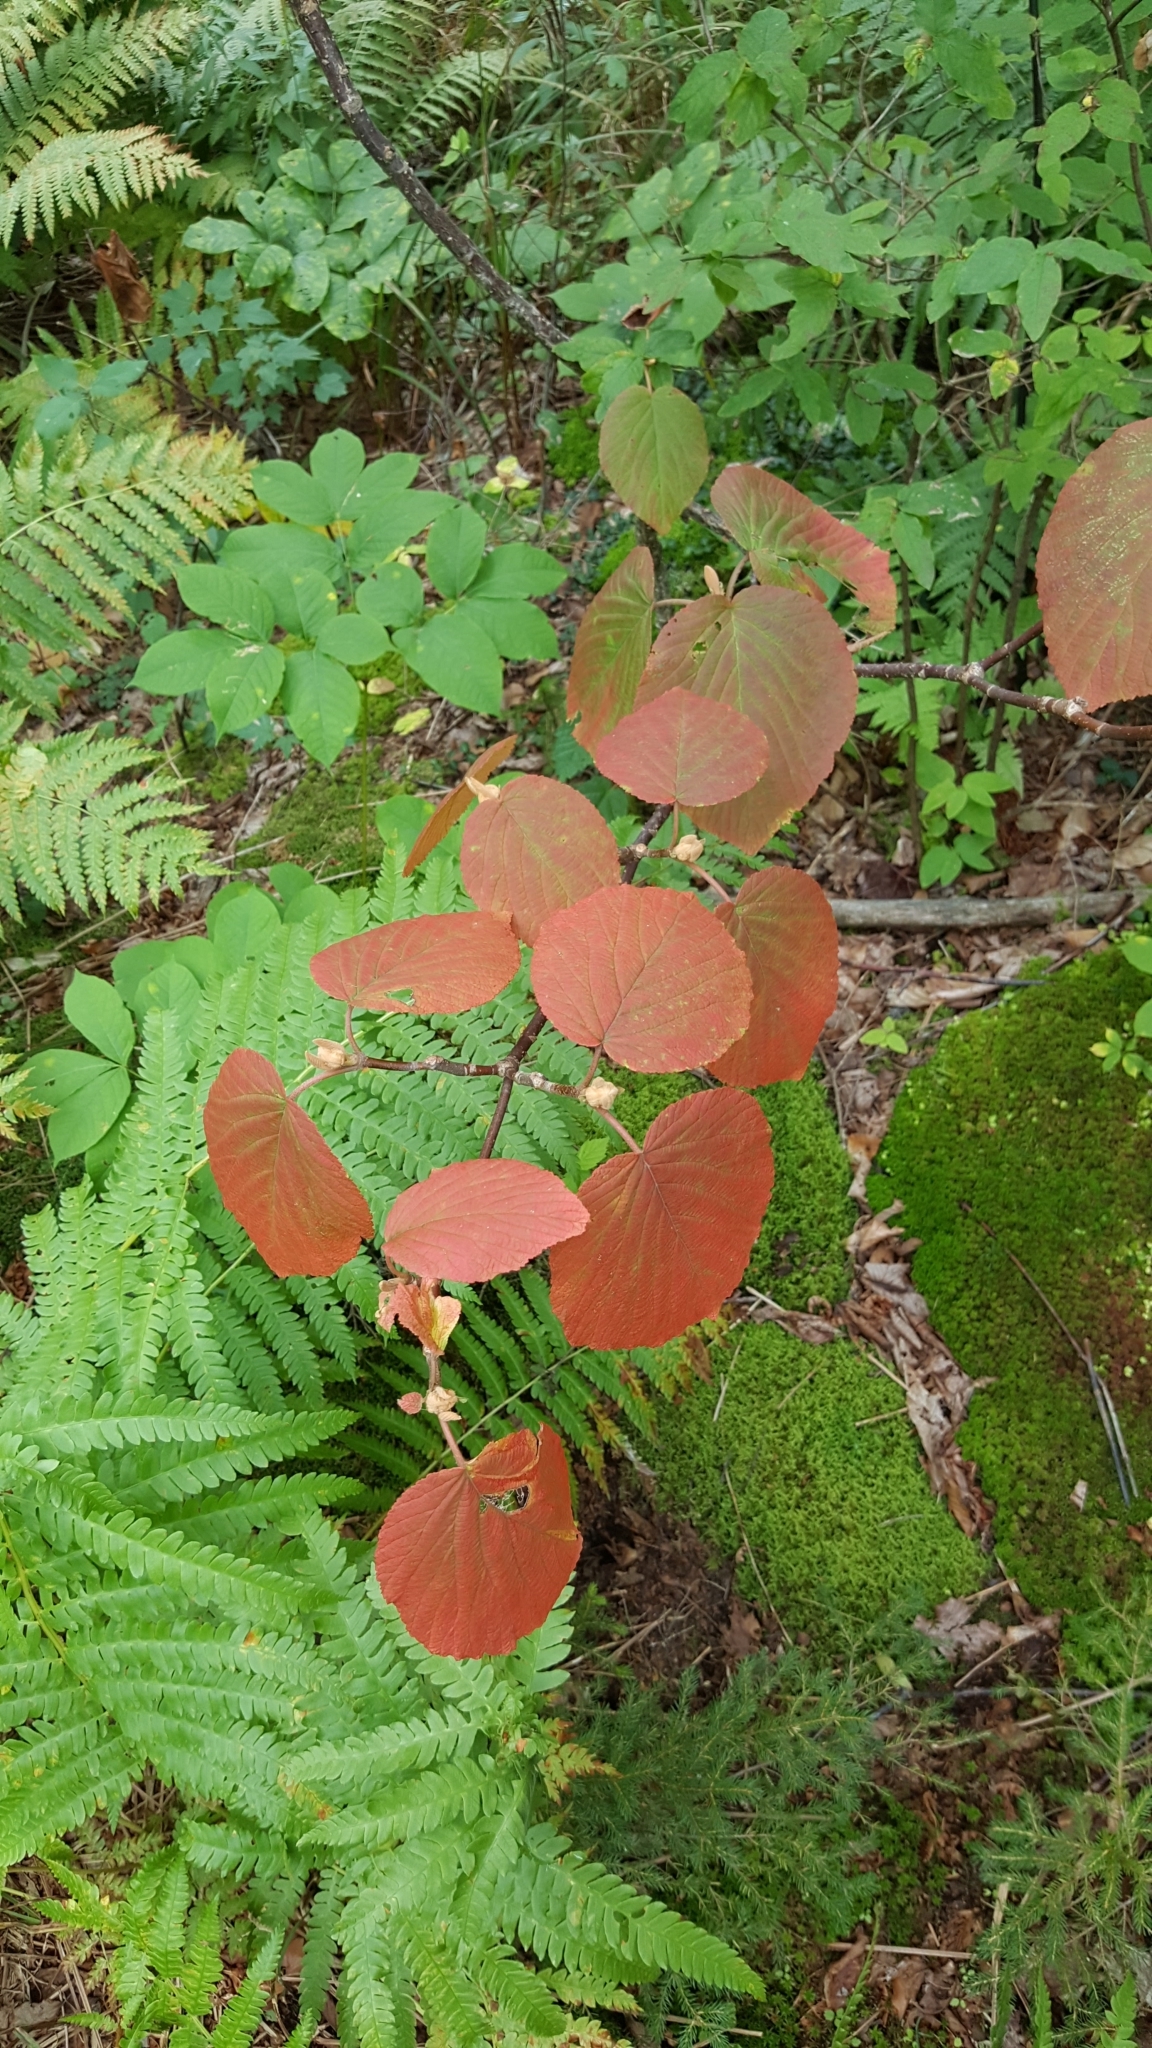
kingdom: Plantae
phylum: Tracheophyta
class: Magnoliopsida
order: Dipsacales
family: Viburnaceae
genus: Viburnum
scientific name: Viburnum lantanoides
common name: Hobblebush
